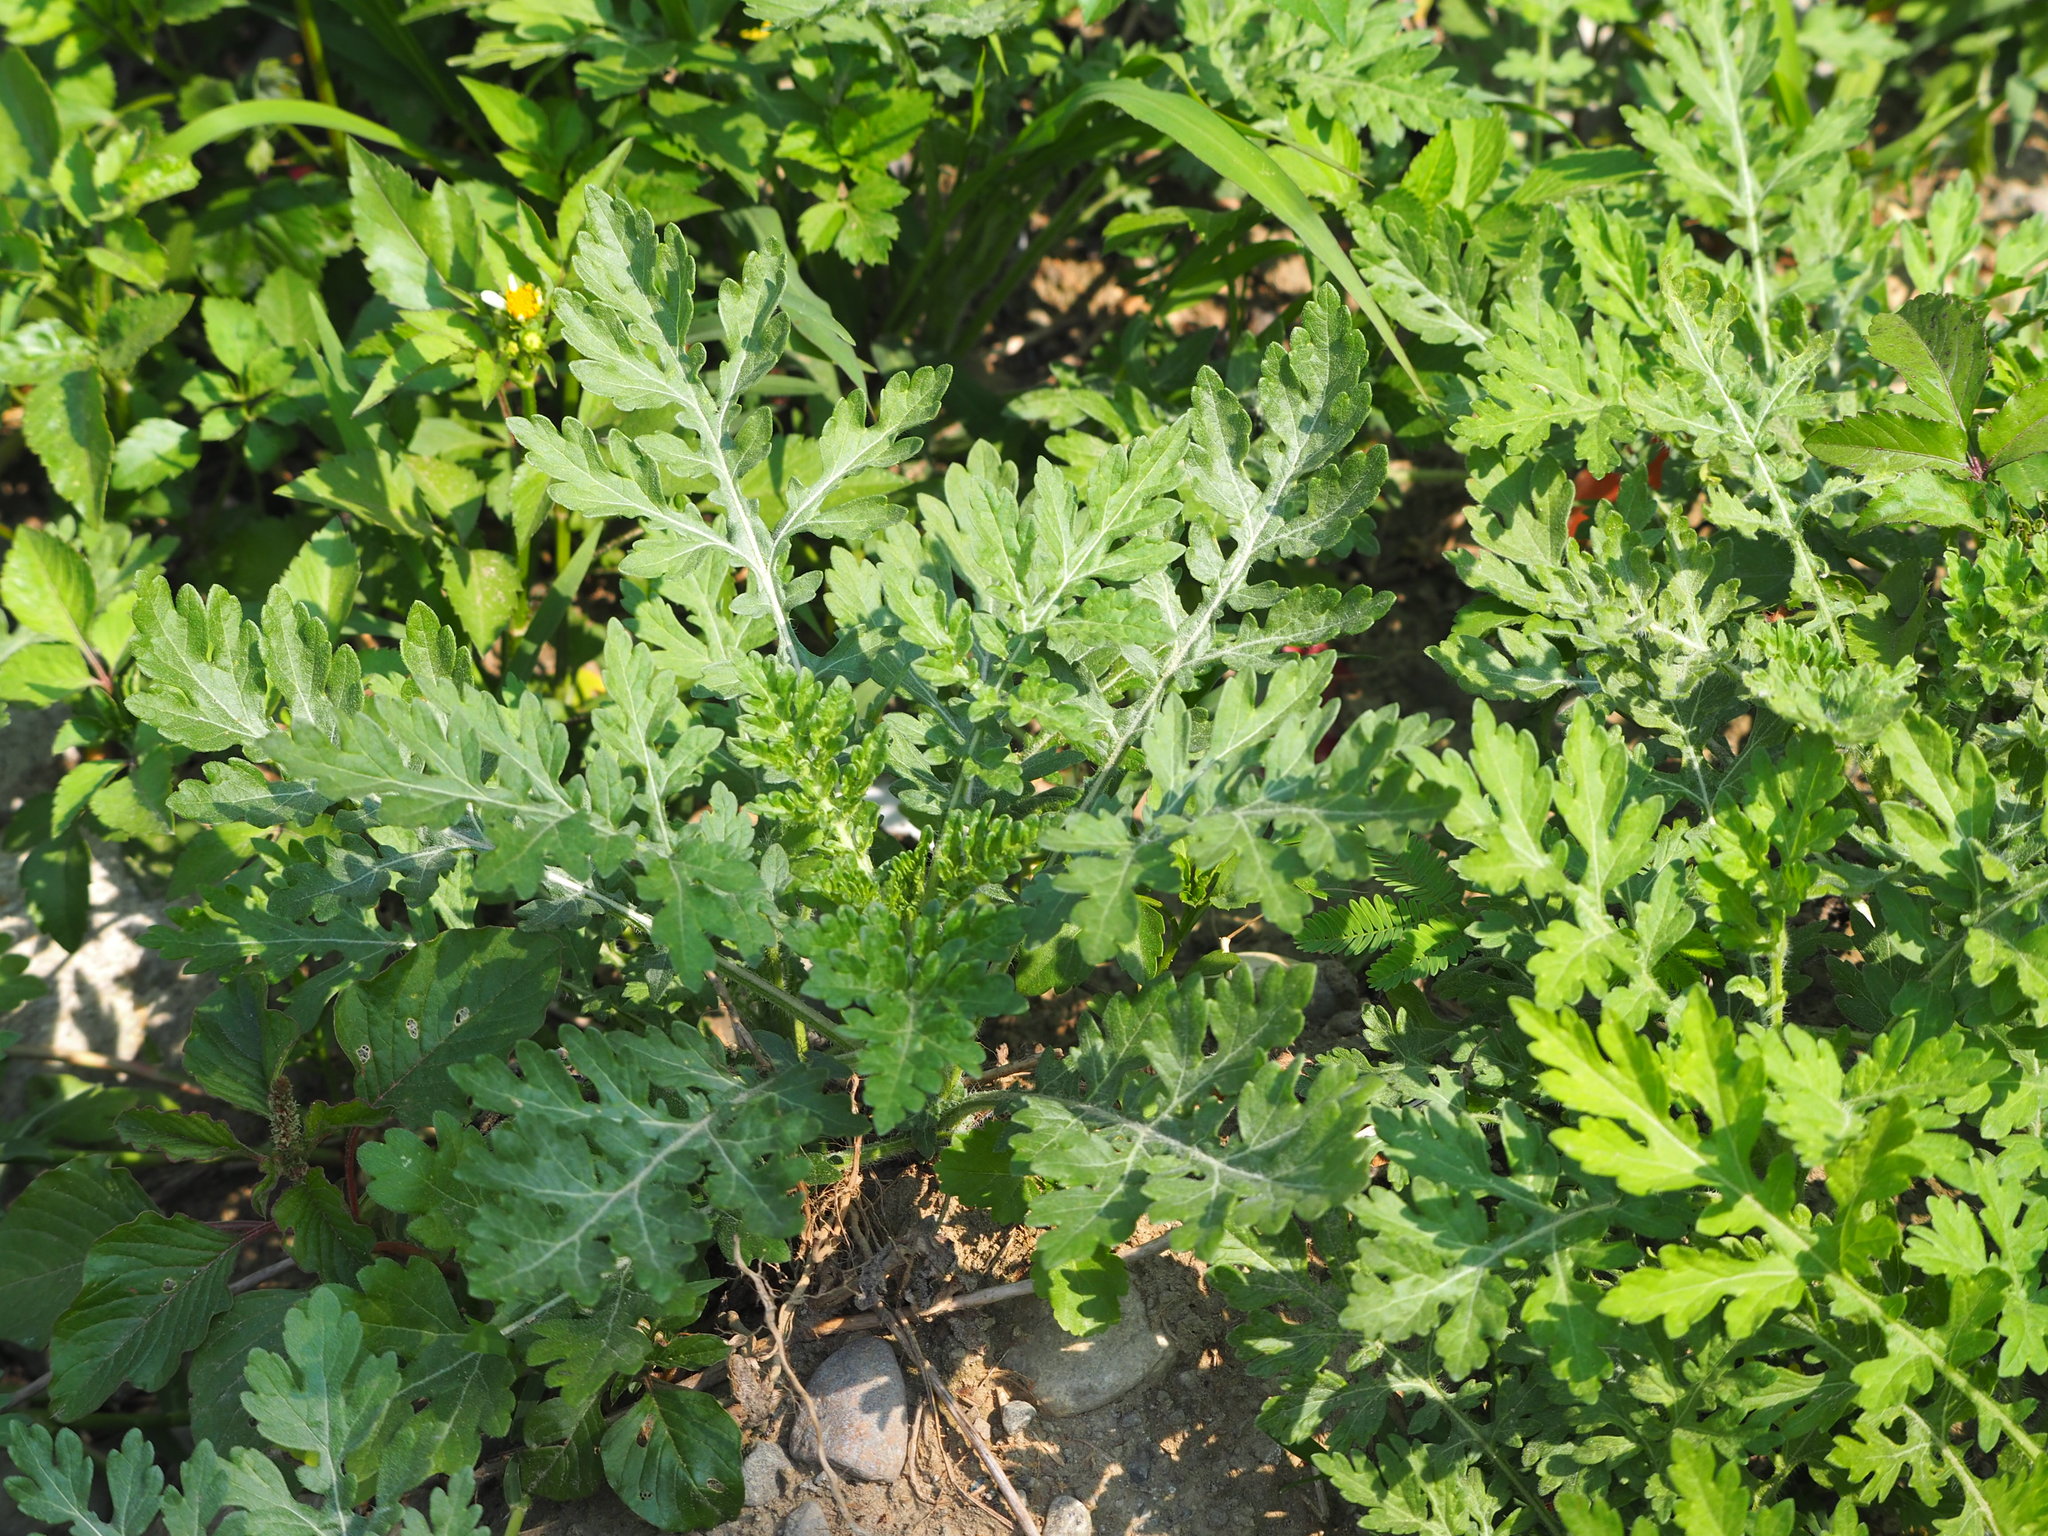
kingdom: Plantae
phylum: Tracheophyta
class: Magnoliopsida
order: Asterales
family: Asteraceae
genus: Parthenium
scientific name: Parthenium hysterophorus
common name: Santa maria feverfew
